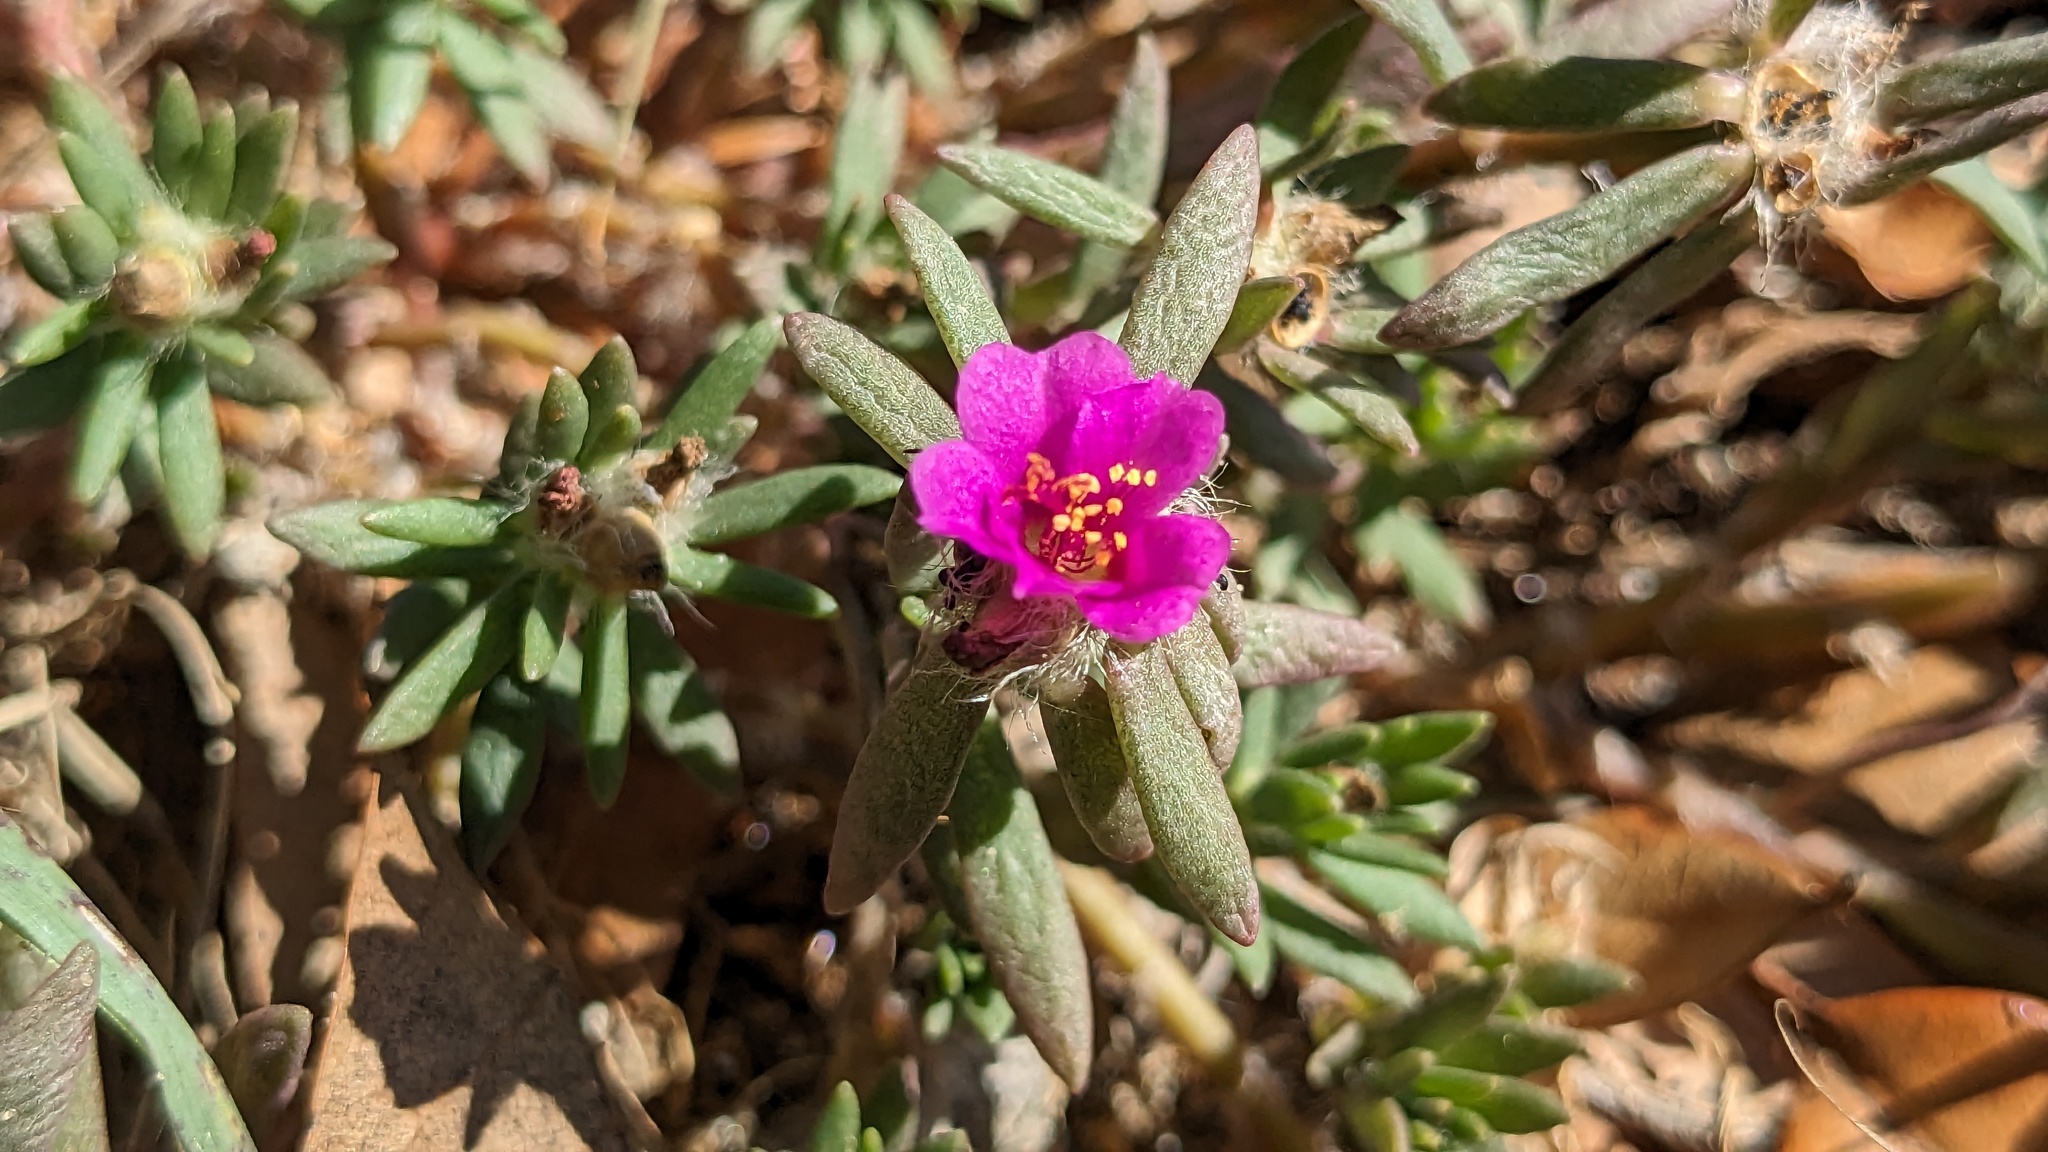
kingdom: Plantae
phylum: Tracheophyta
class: Magnoliopsida
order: Caryophyllales
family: Portulacaceae
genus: Portulaca
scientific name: Portulaca pilosa
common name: Kiss me quick
